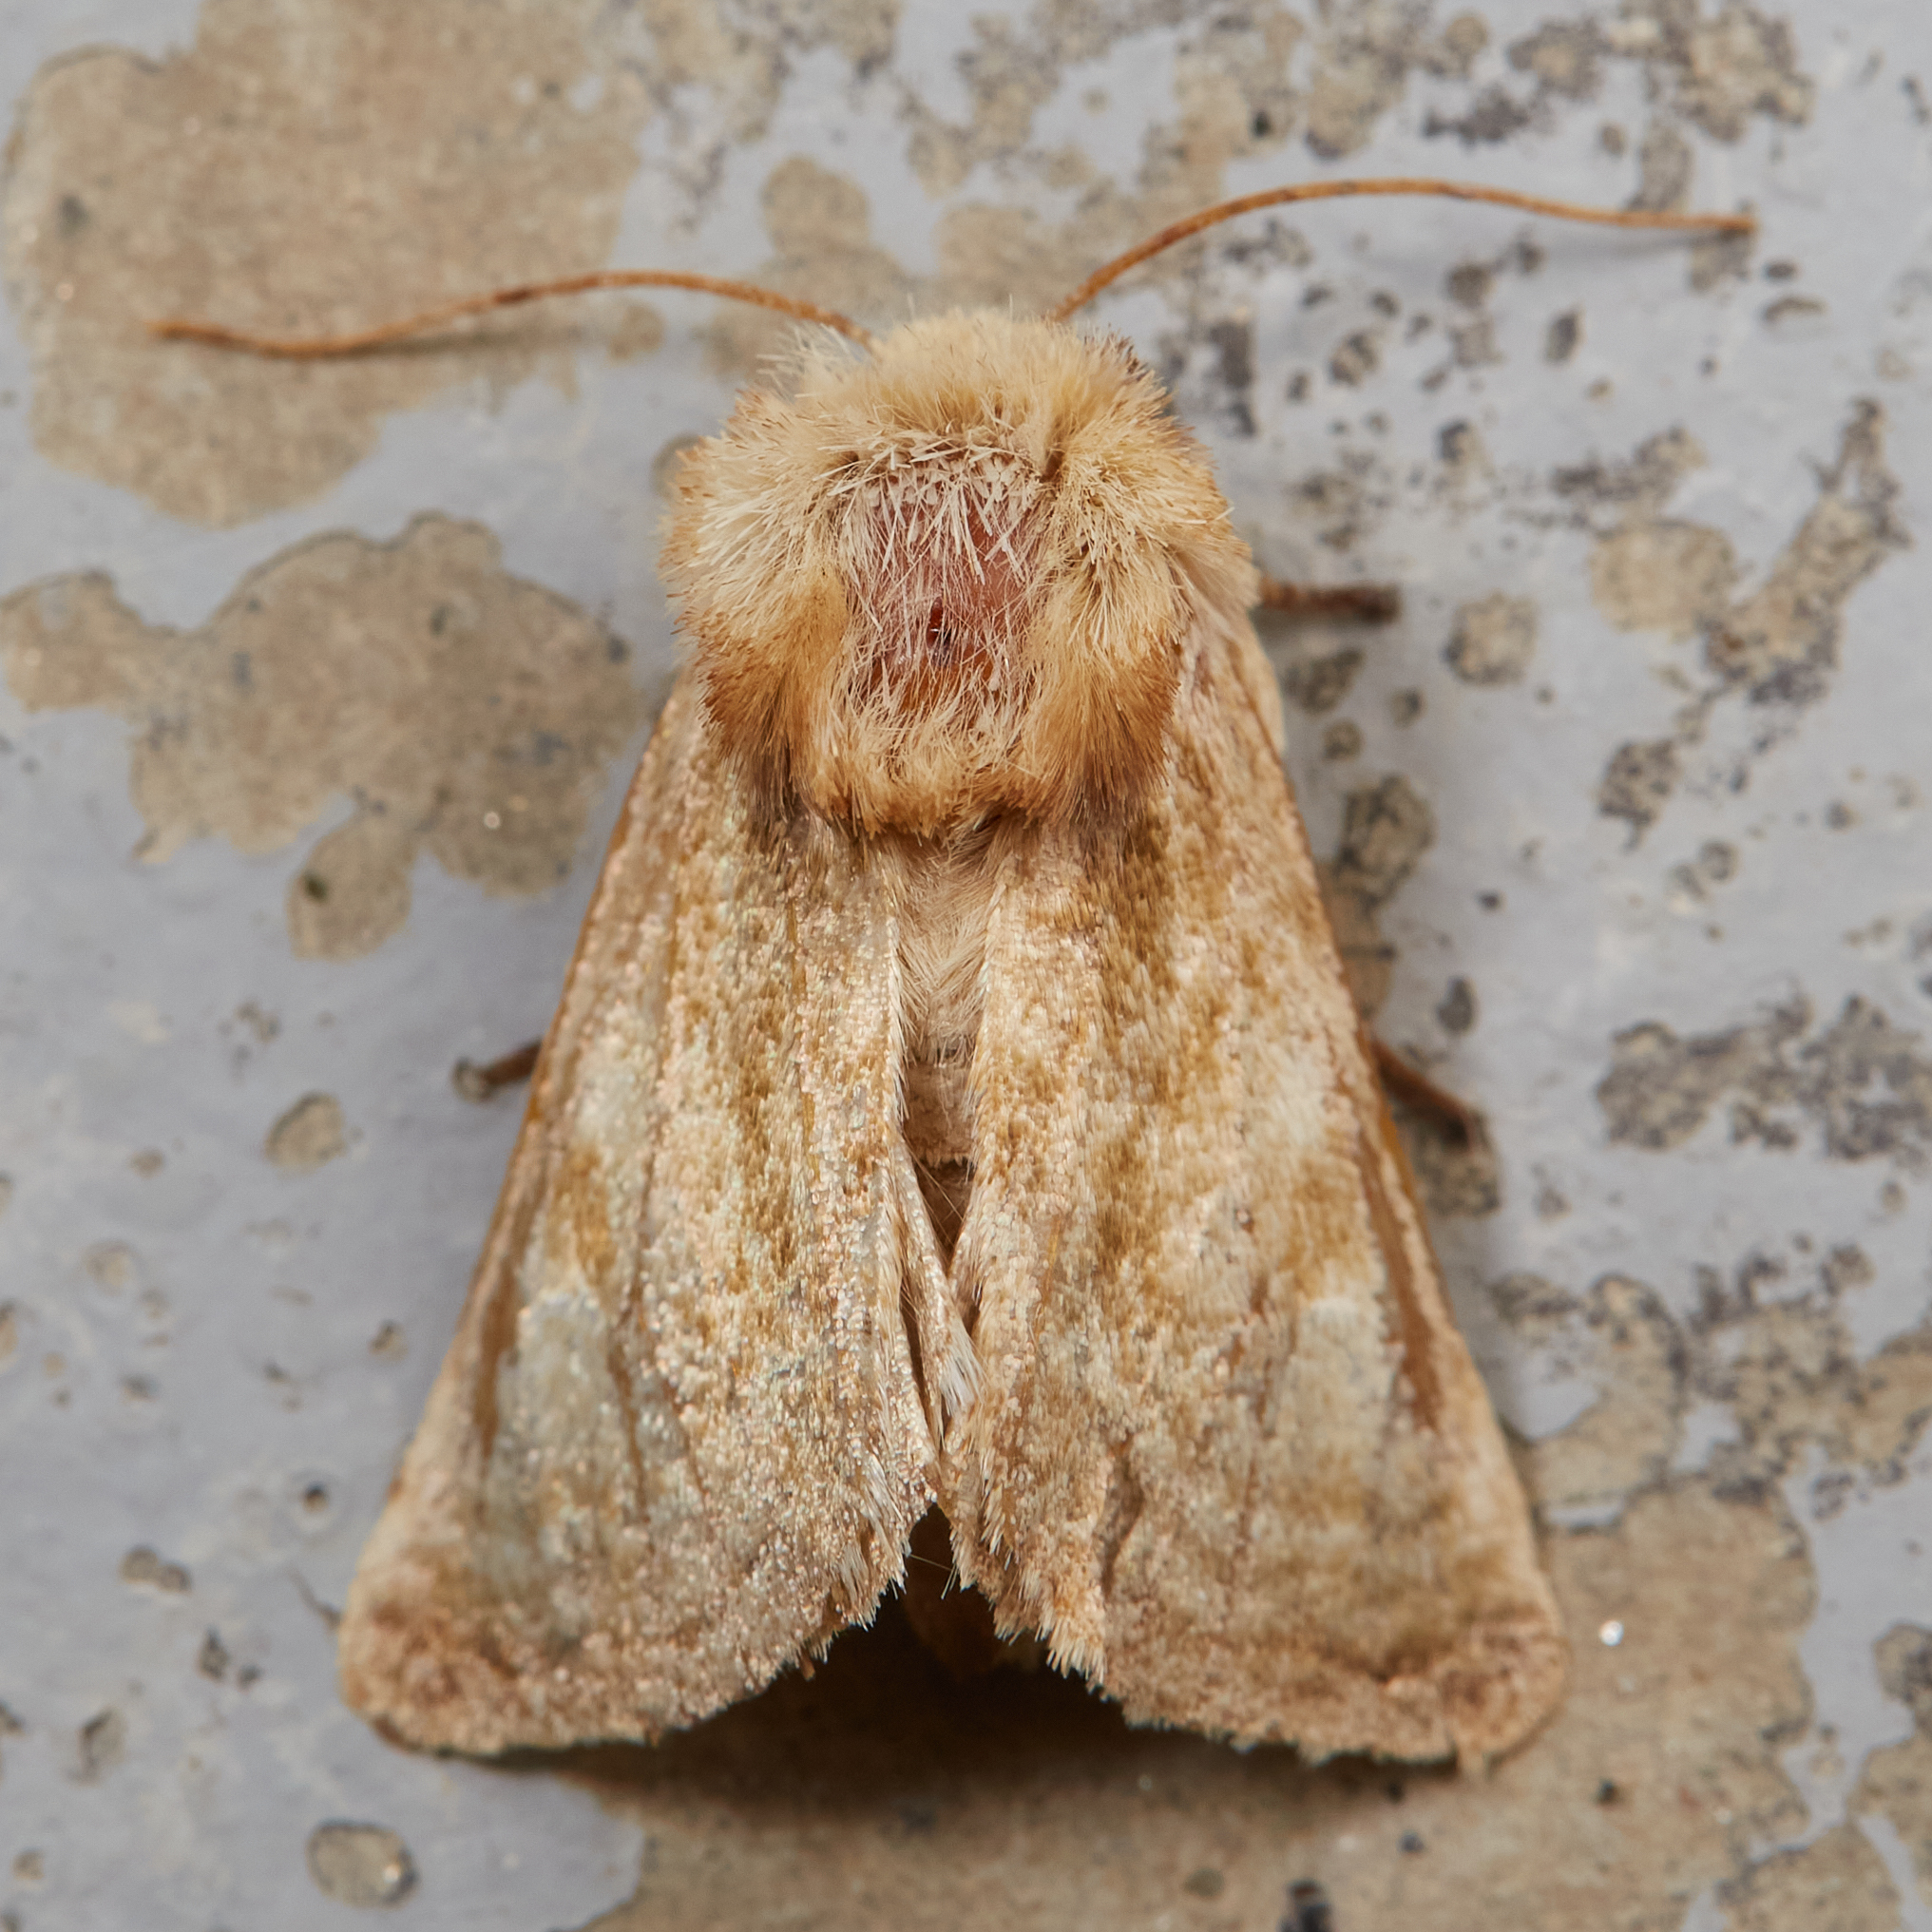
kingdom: Animalia
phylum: Arthropoda
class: Insecta
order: Lepidoptera
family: Noctuidae
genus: Nocloa
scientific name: Nocloa rivulosa
